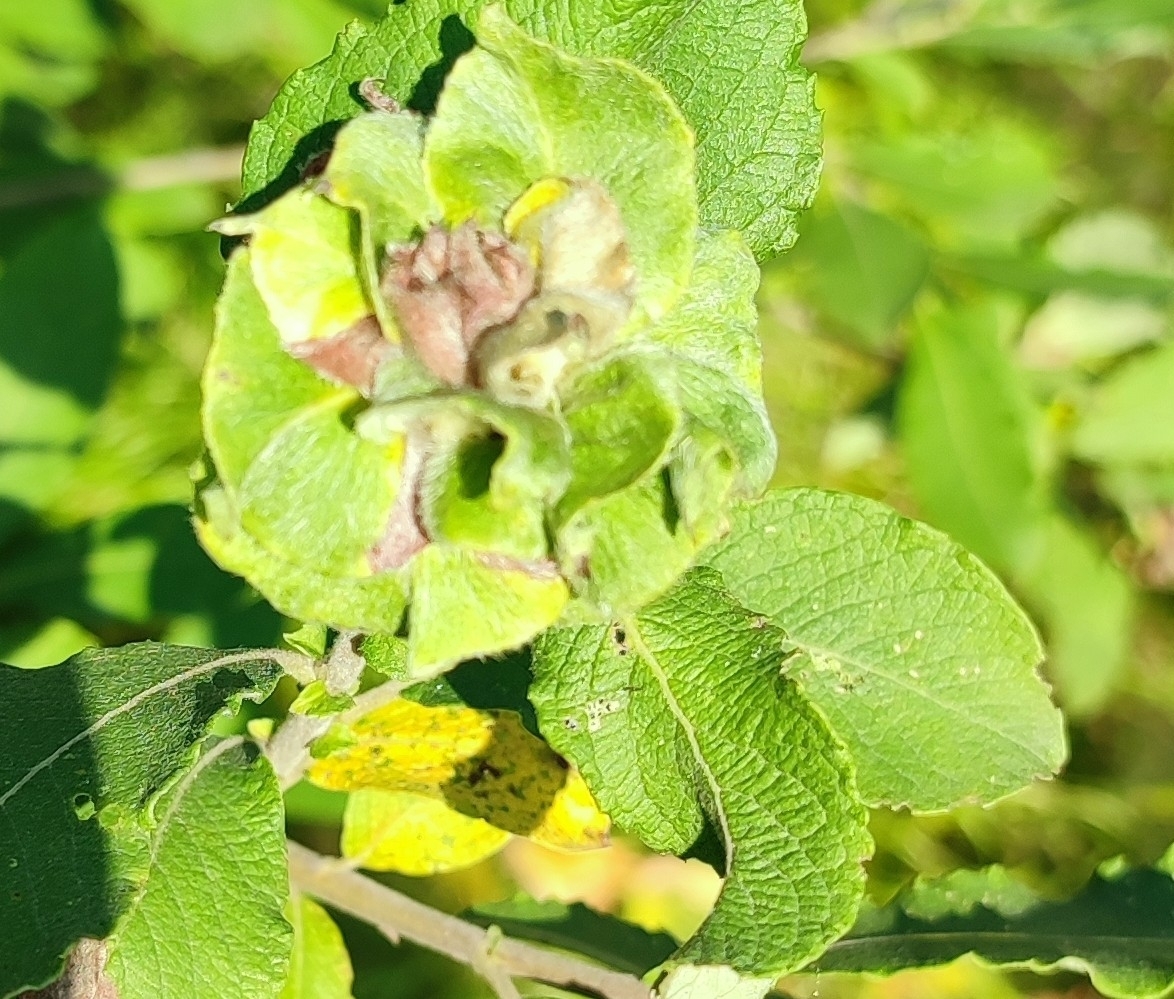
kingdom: Animalia
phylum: Arthropoda
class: Insecta
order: Diptera
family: Cecidomyiidae
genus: Rabdophaga
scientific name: Rabdophaga rosaria
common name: Willow rose gall midge
